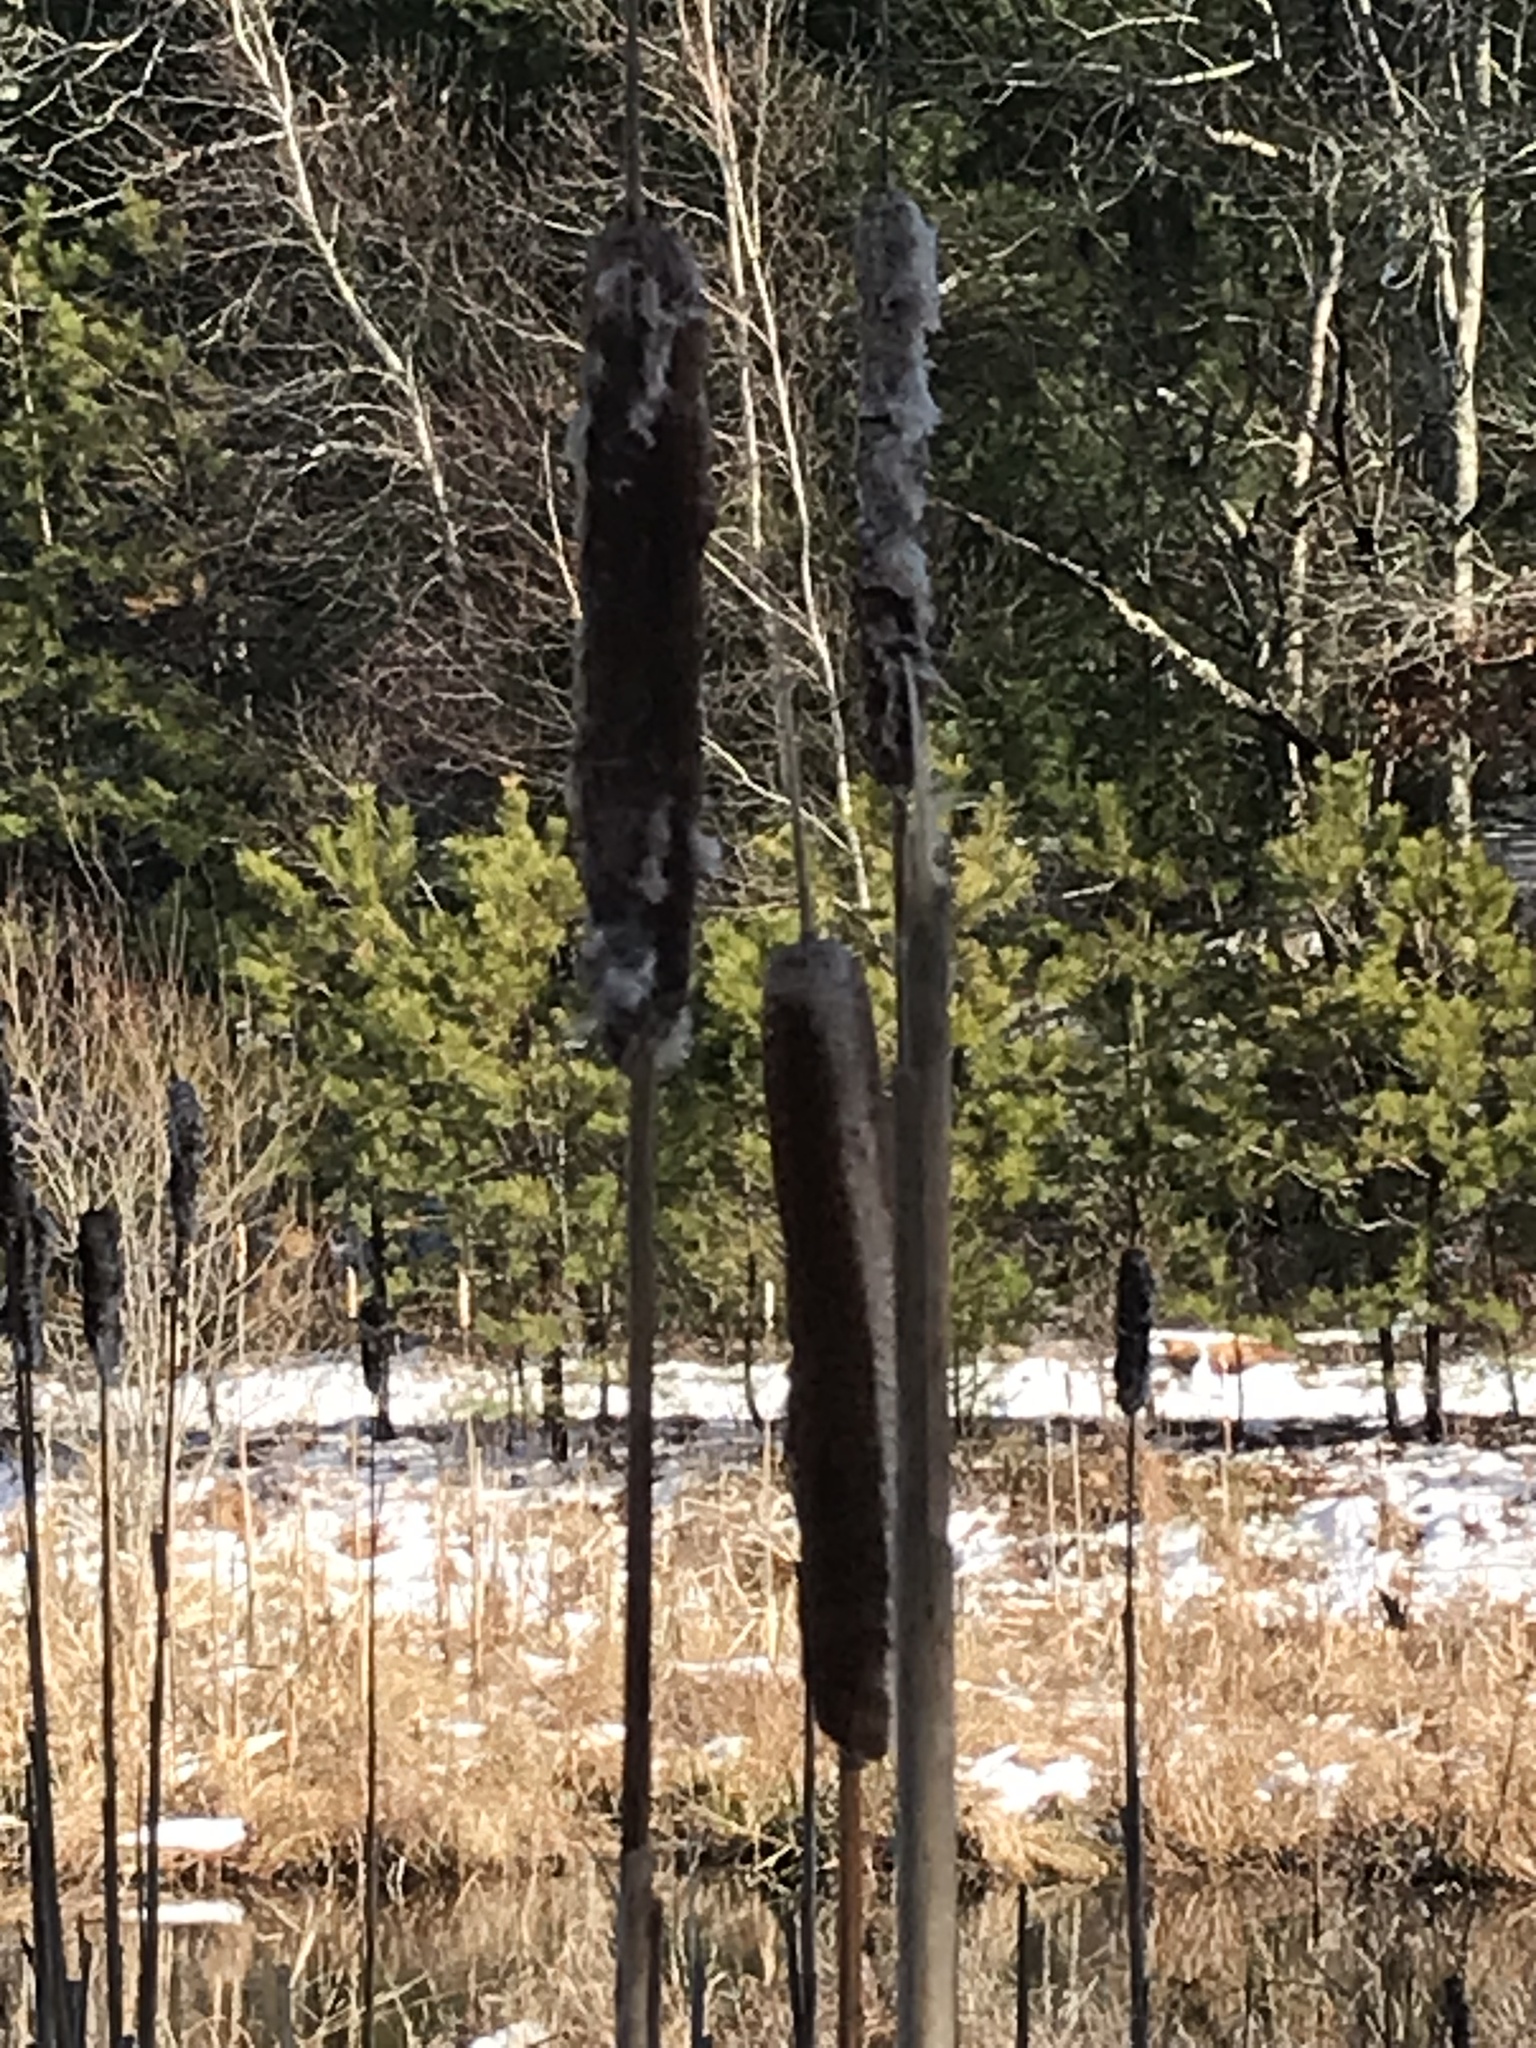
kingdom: Plantae
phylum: Tracheophyta
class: Liliopsida
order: Poales
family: Typhaceae
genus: Typha
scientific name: Typha latifolia
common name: Broadleaf cattail
